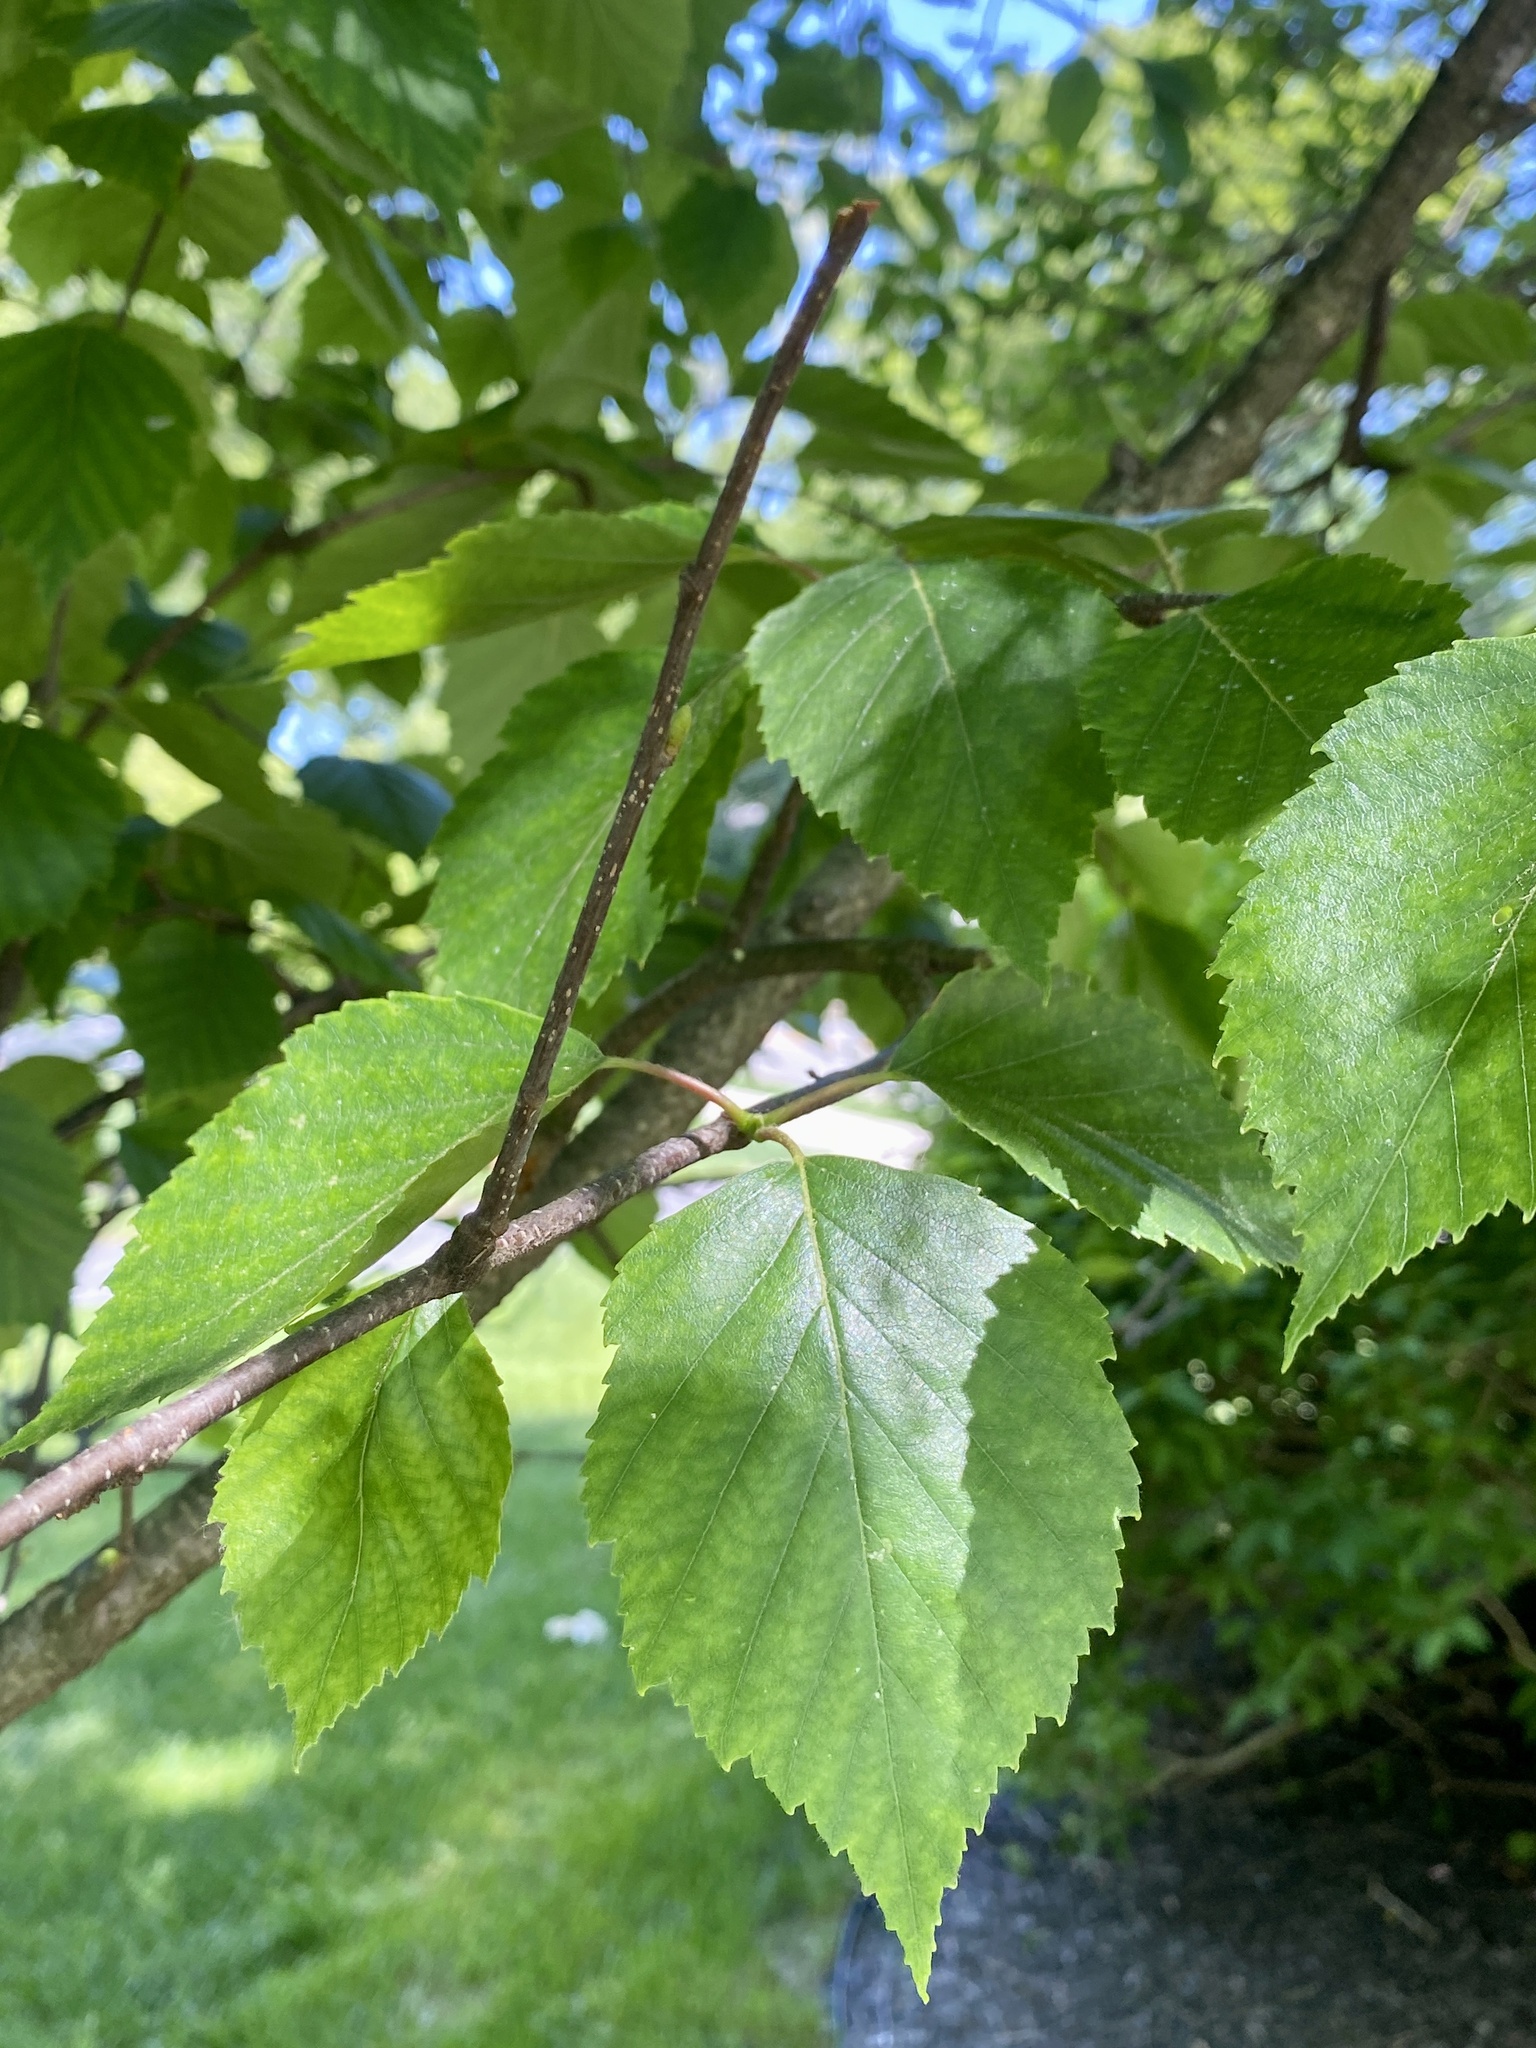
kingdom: Plantae
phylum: Tracheophyta
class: Magnoliopsida
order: Fagales
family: Betulaceae
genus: Betula
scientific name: Betula papyrifera
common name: Paper birch
